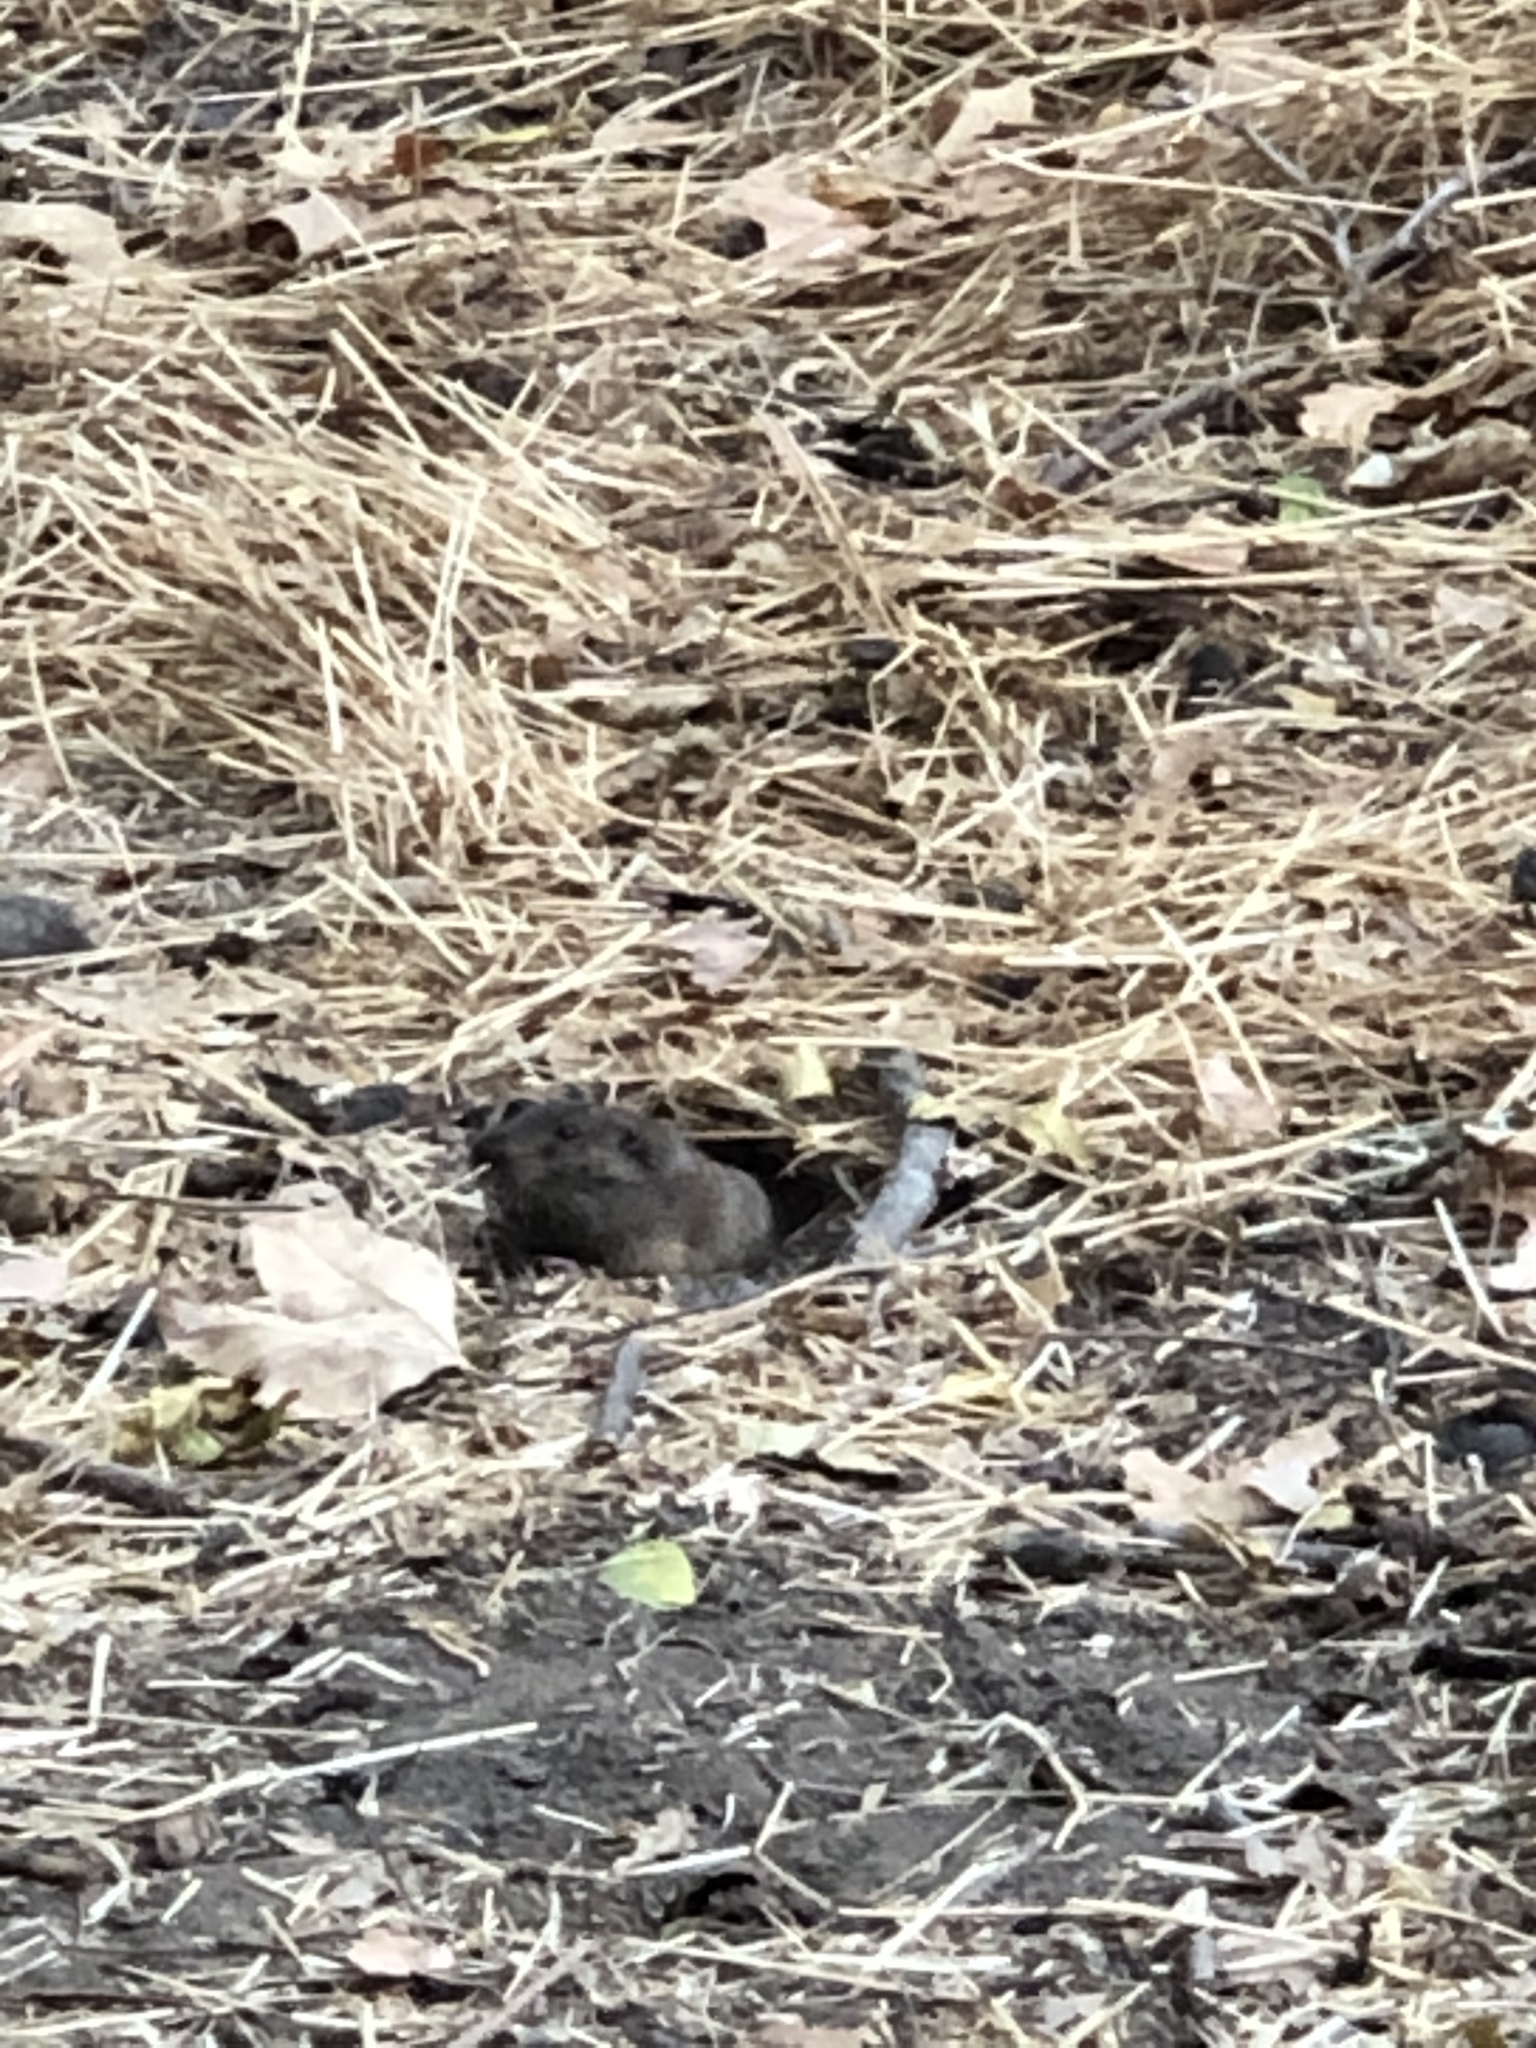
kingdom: Animalia
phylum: Chordata
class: Mammalia
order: Rodentia
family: Geomyidae
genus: Thomomys
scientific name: Thomomys bottae
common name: Botta's pocket gopher
